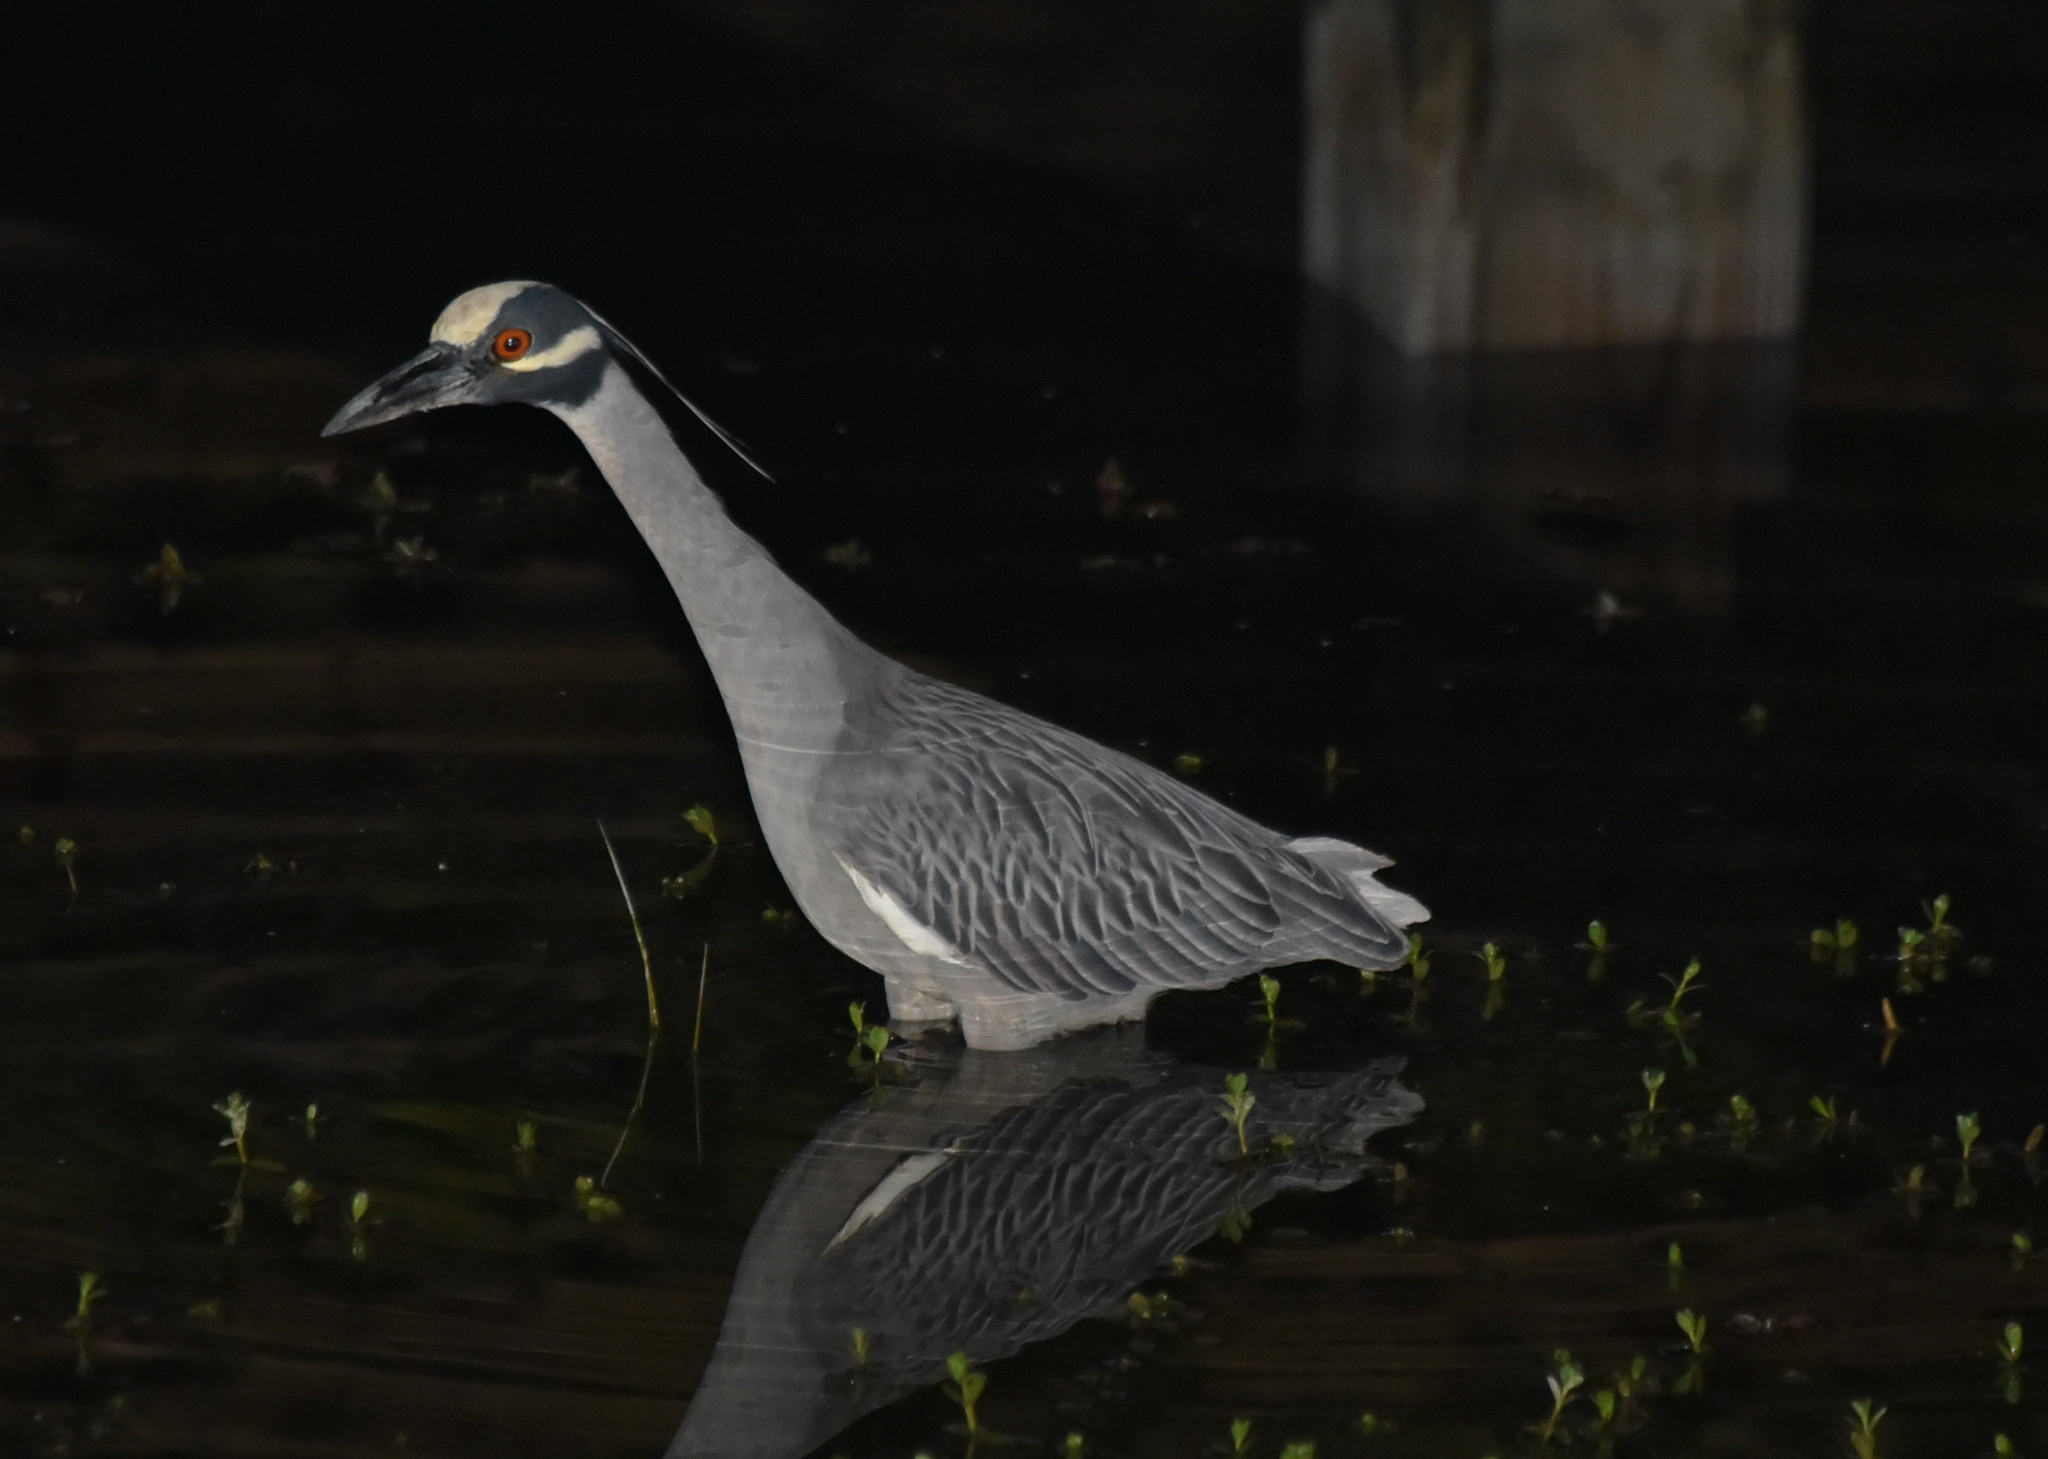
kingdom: Animalia
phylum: Chordata
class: Aves
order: Pelecaniformes
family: Ardeidae
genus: Nyctanassa
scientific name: Nyctanassa violacea
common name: Yellow-crowned night heron
